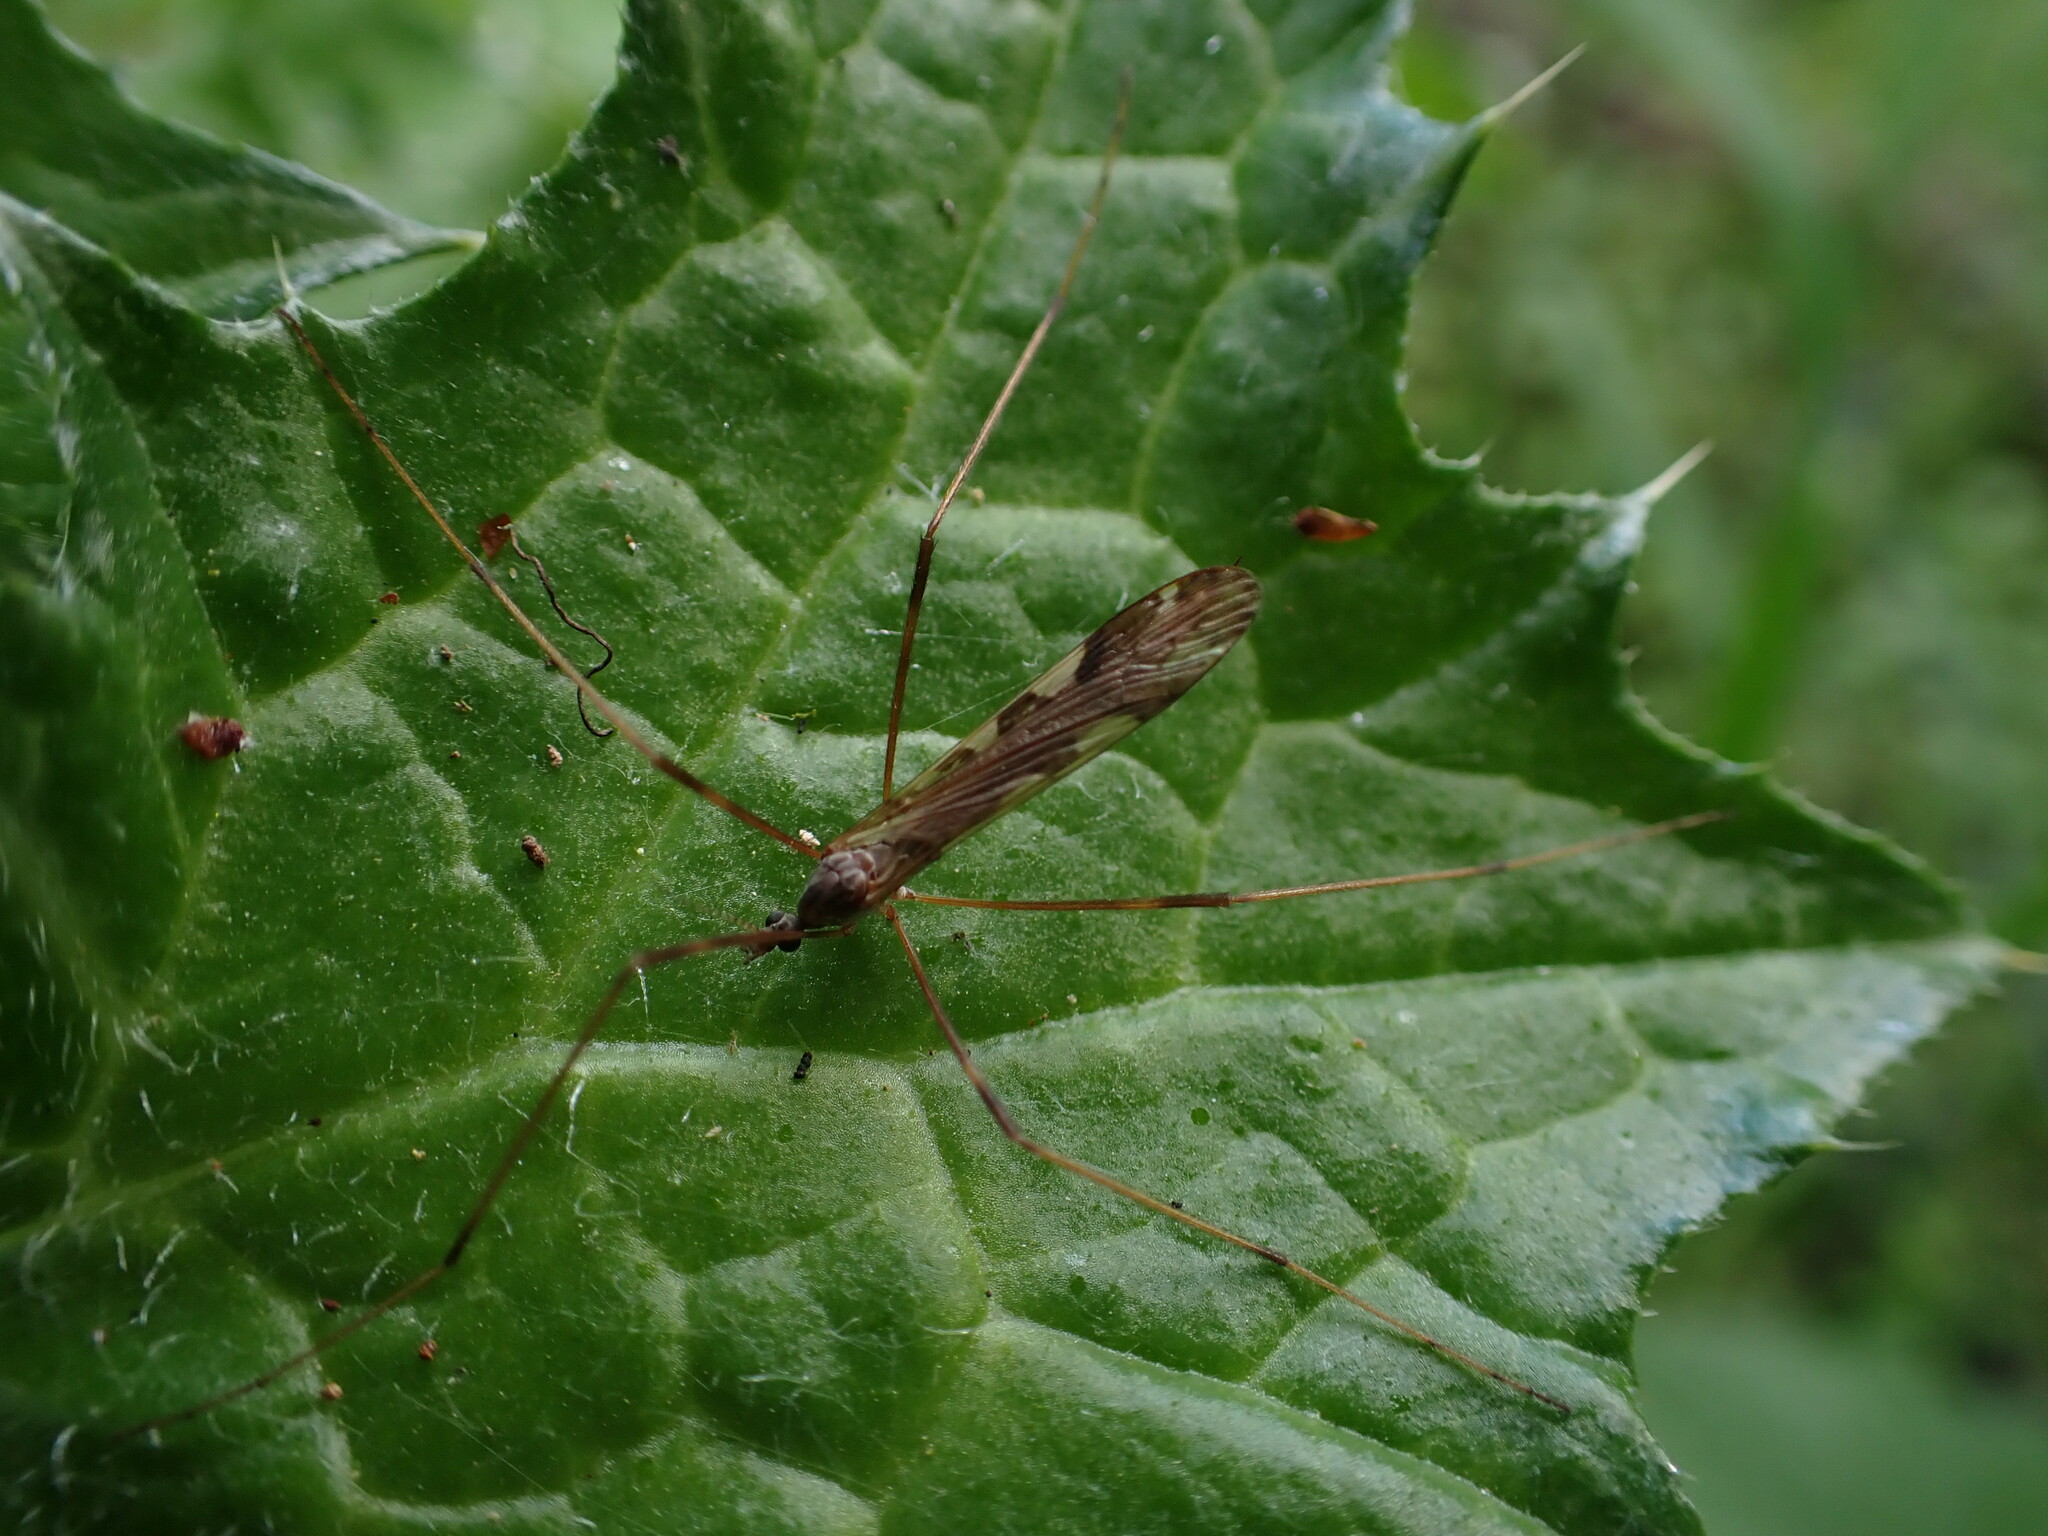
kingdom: Animalia
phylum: Arthropoda
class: Insecta
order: Diptera
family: Limoniidae
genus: Paralimnophila
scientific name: Paralimnophila skusei
